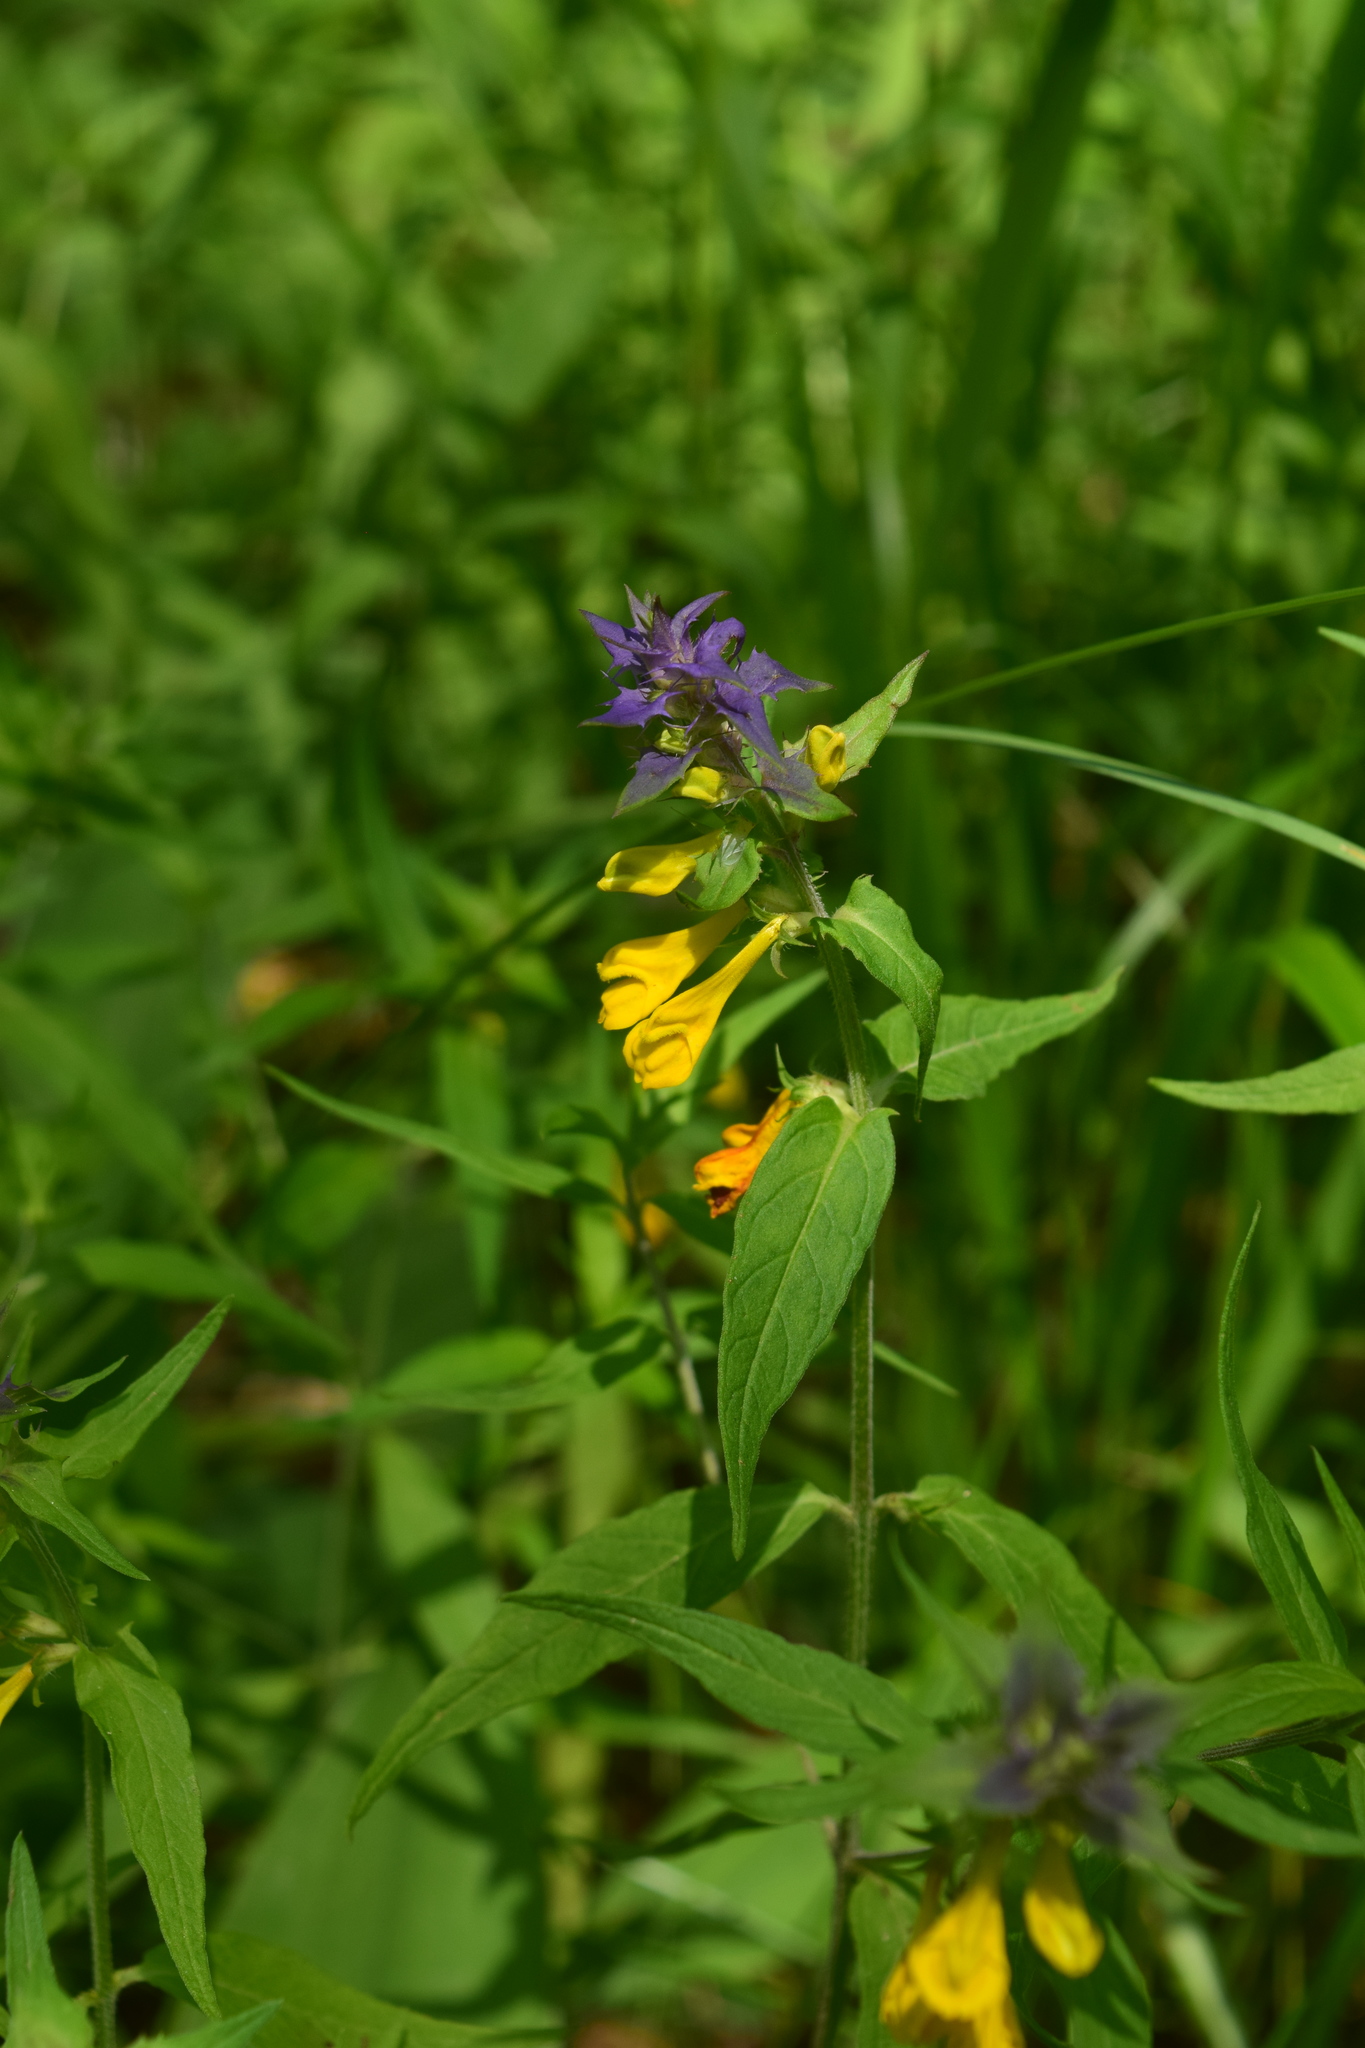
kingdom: Plantae
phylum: Tracheophyta
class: Magnoliopsida
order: Lamiales
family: Orobanchaceae
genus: Melampyrum
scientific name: Melampyrum nemorosum
